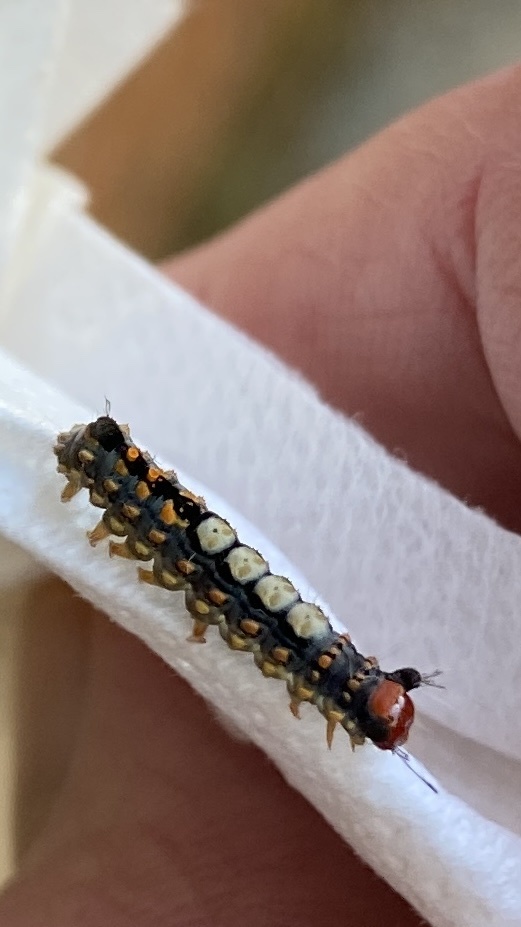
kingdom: Animalia
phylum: Arthropoda
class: Insecta
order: Lepidoptera
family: Erebidae
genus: Orgyia
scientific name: Orgyia detrita
